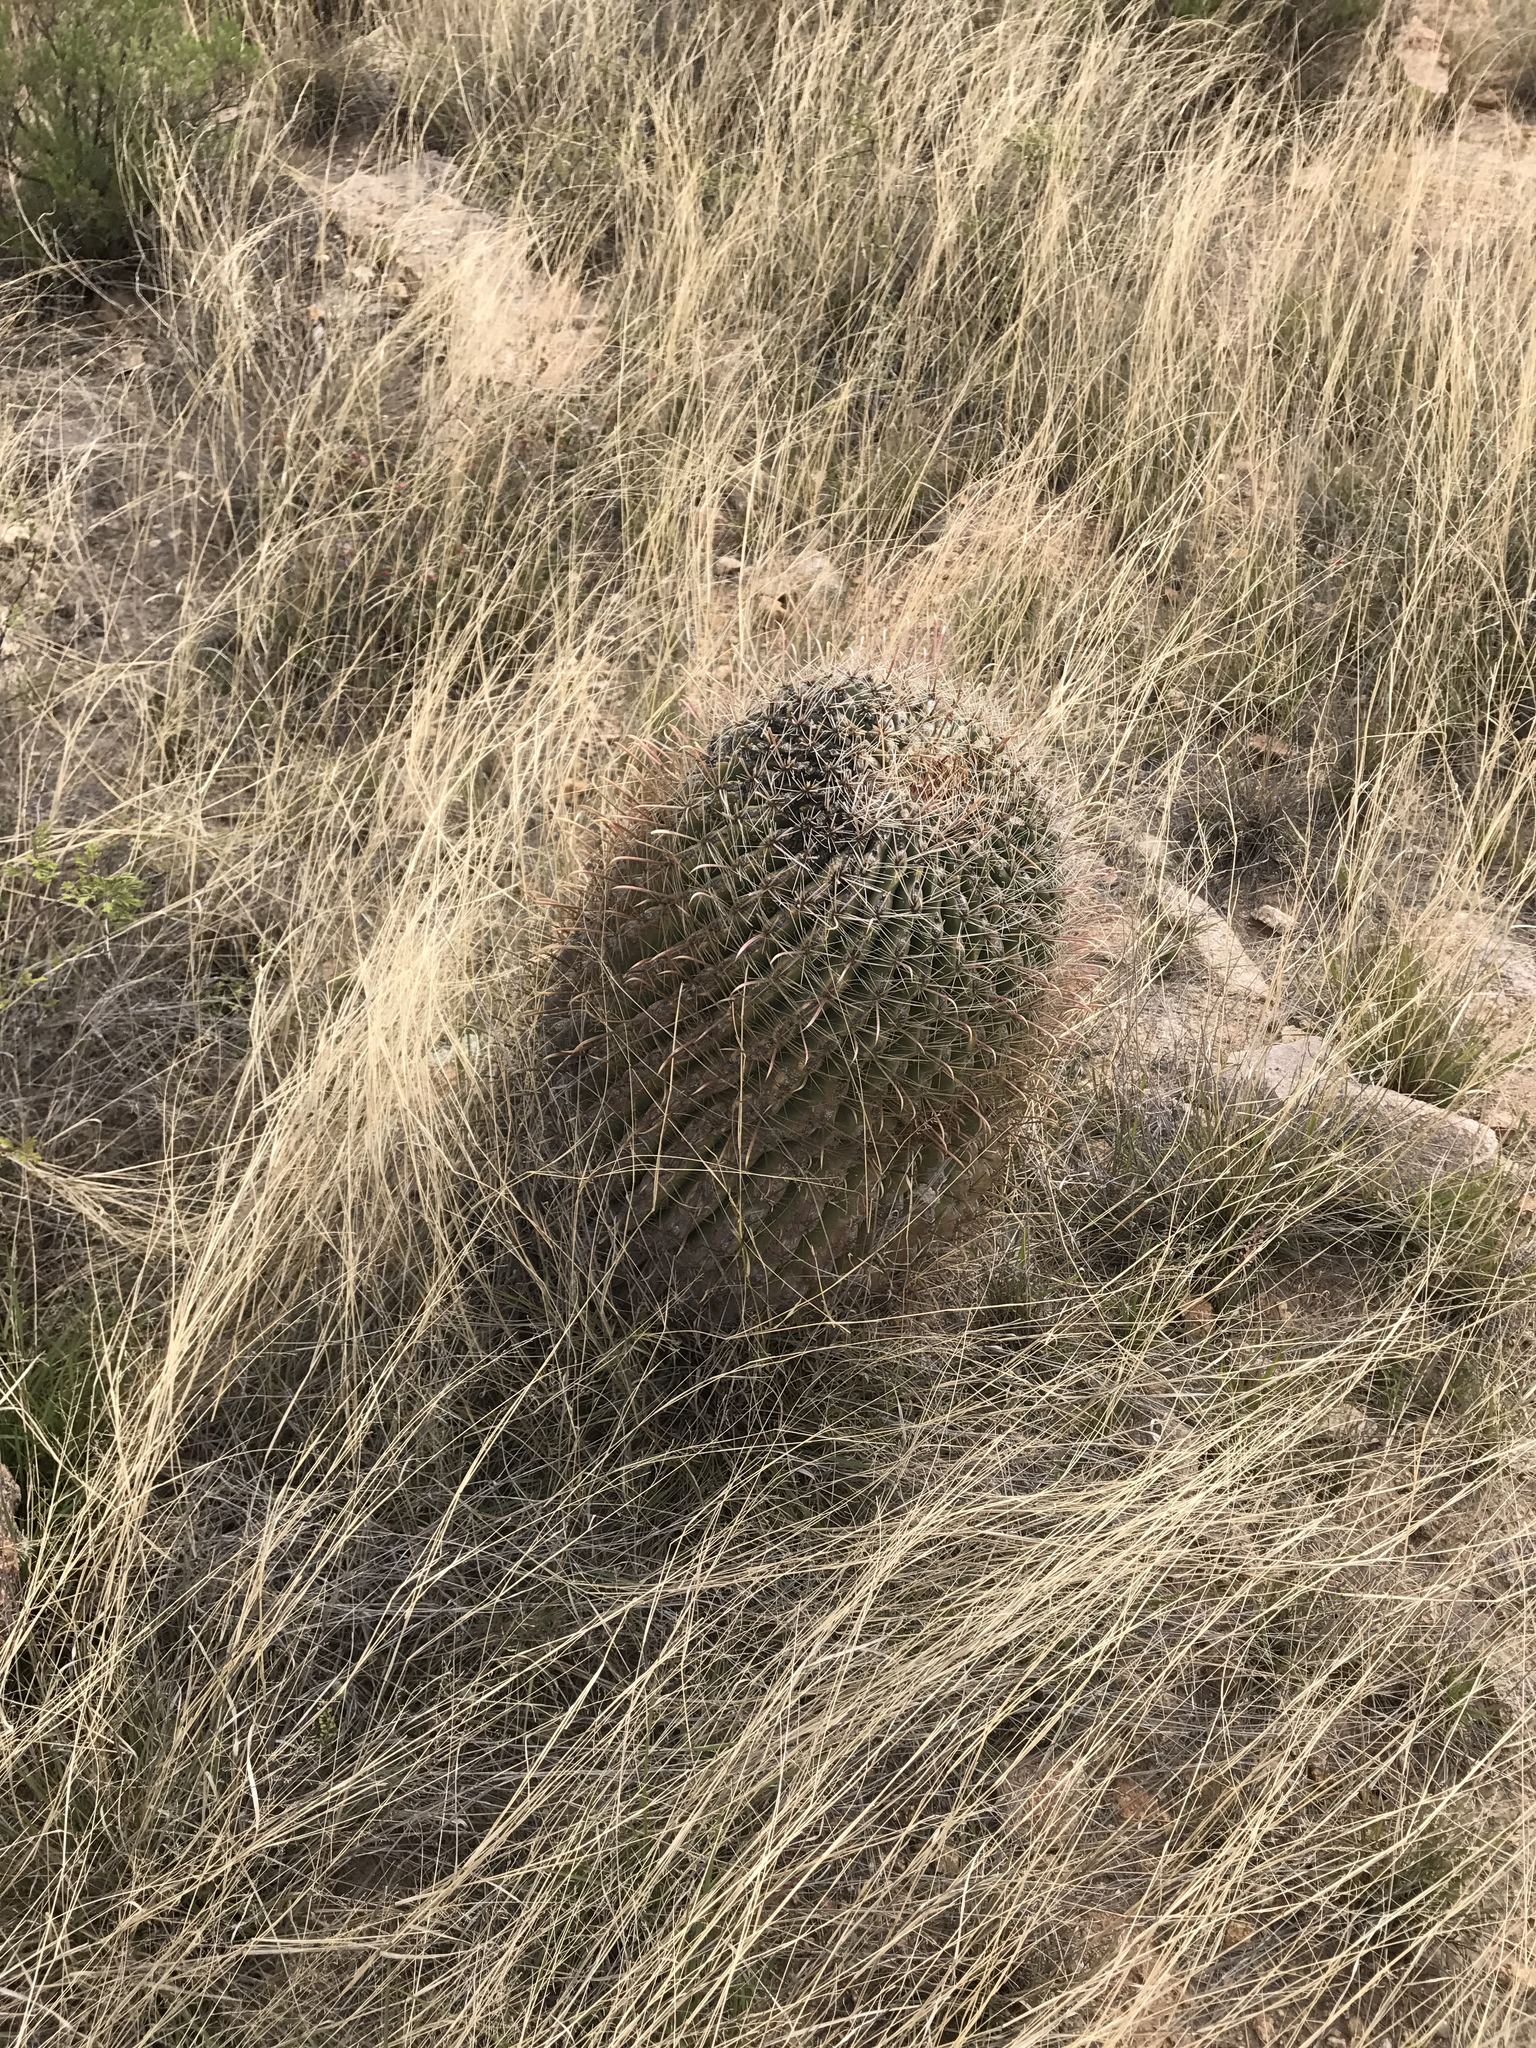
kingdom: Plantae
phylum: Tracheophyta
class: Magnoliopsida
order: Caryophyllales
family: Cactaceae
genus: Ferocactus
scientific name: Ferocactus wislizeni
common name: Candy barrel cactus
